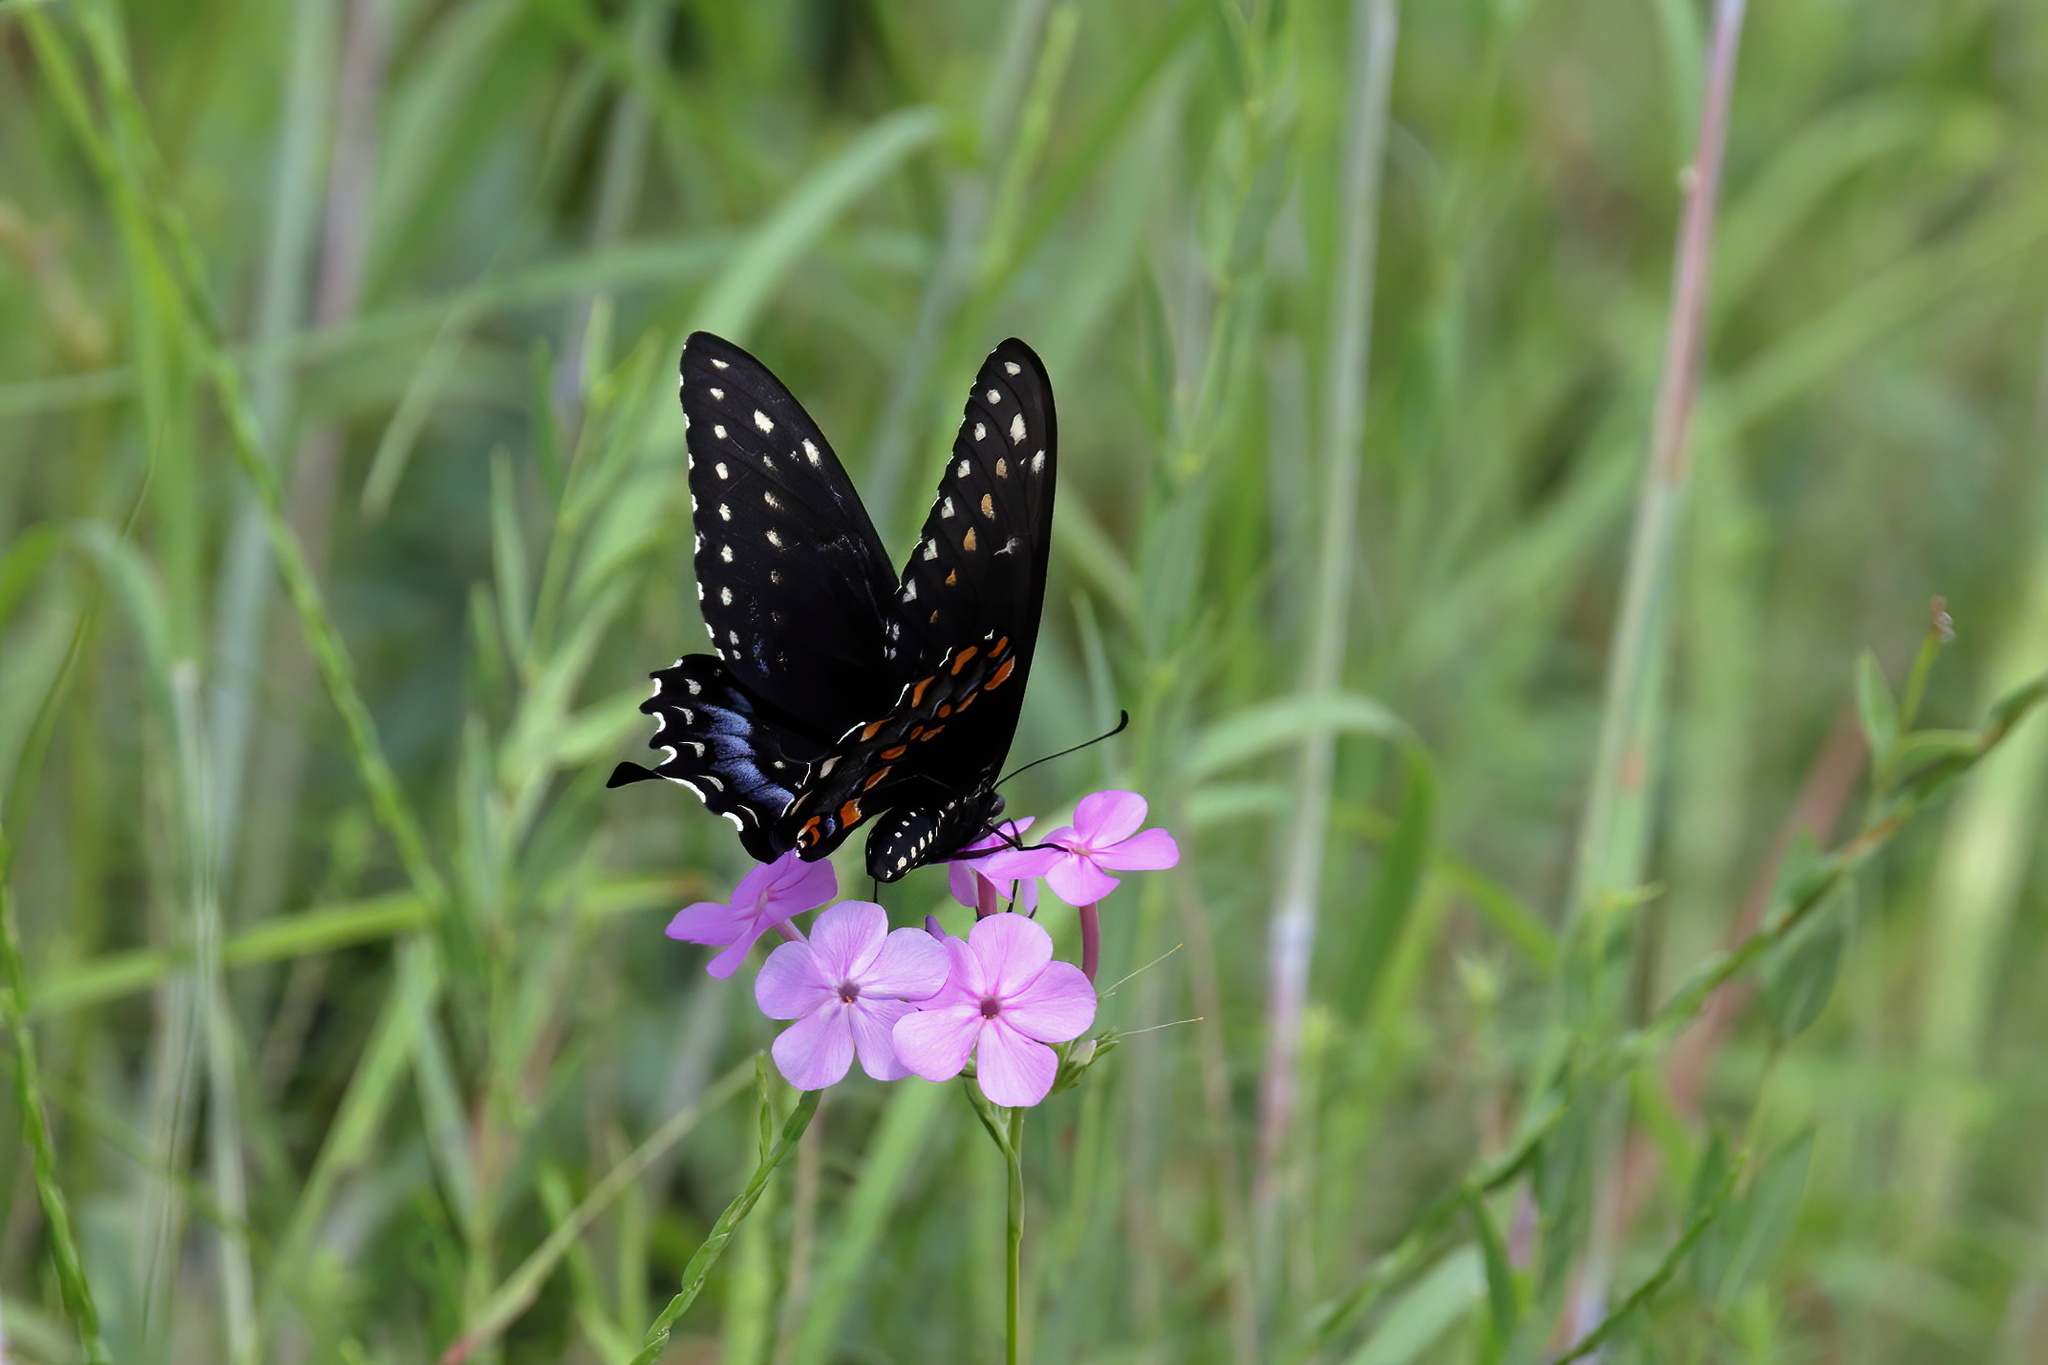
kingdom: Animalia
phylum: Arthropoda
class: Insecta
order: Lepidoptera
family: Papilionidae
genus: Papilio
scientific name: Papilio polyxenes
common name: Black swallowtail
